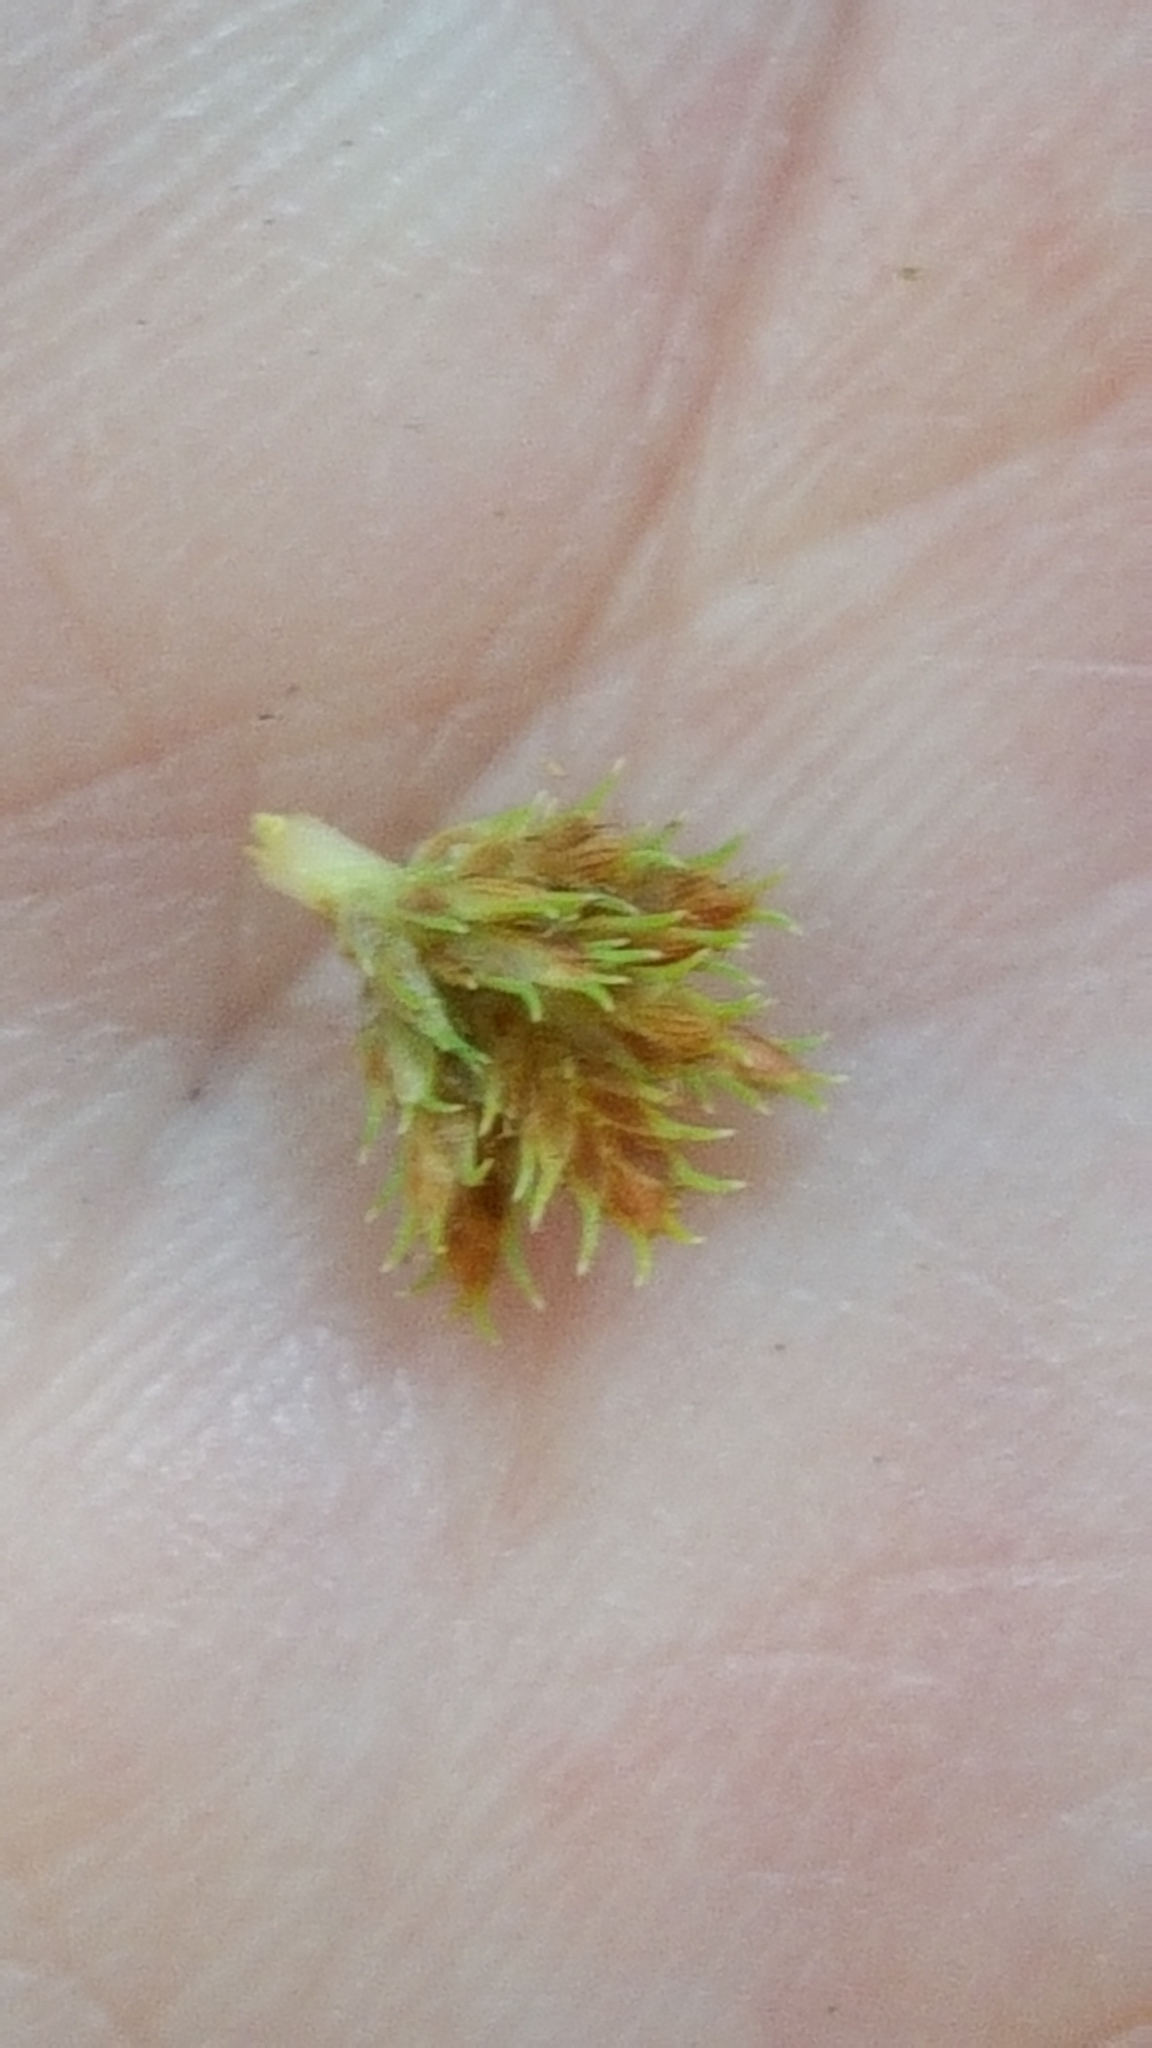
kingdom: Plantae
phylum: Tracheophyta
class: Liliopsida
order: Poales
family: Cyperaceae
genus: Cyperus
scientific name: Cyperus squarrosus
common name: Awned cyperus
